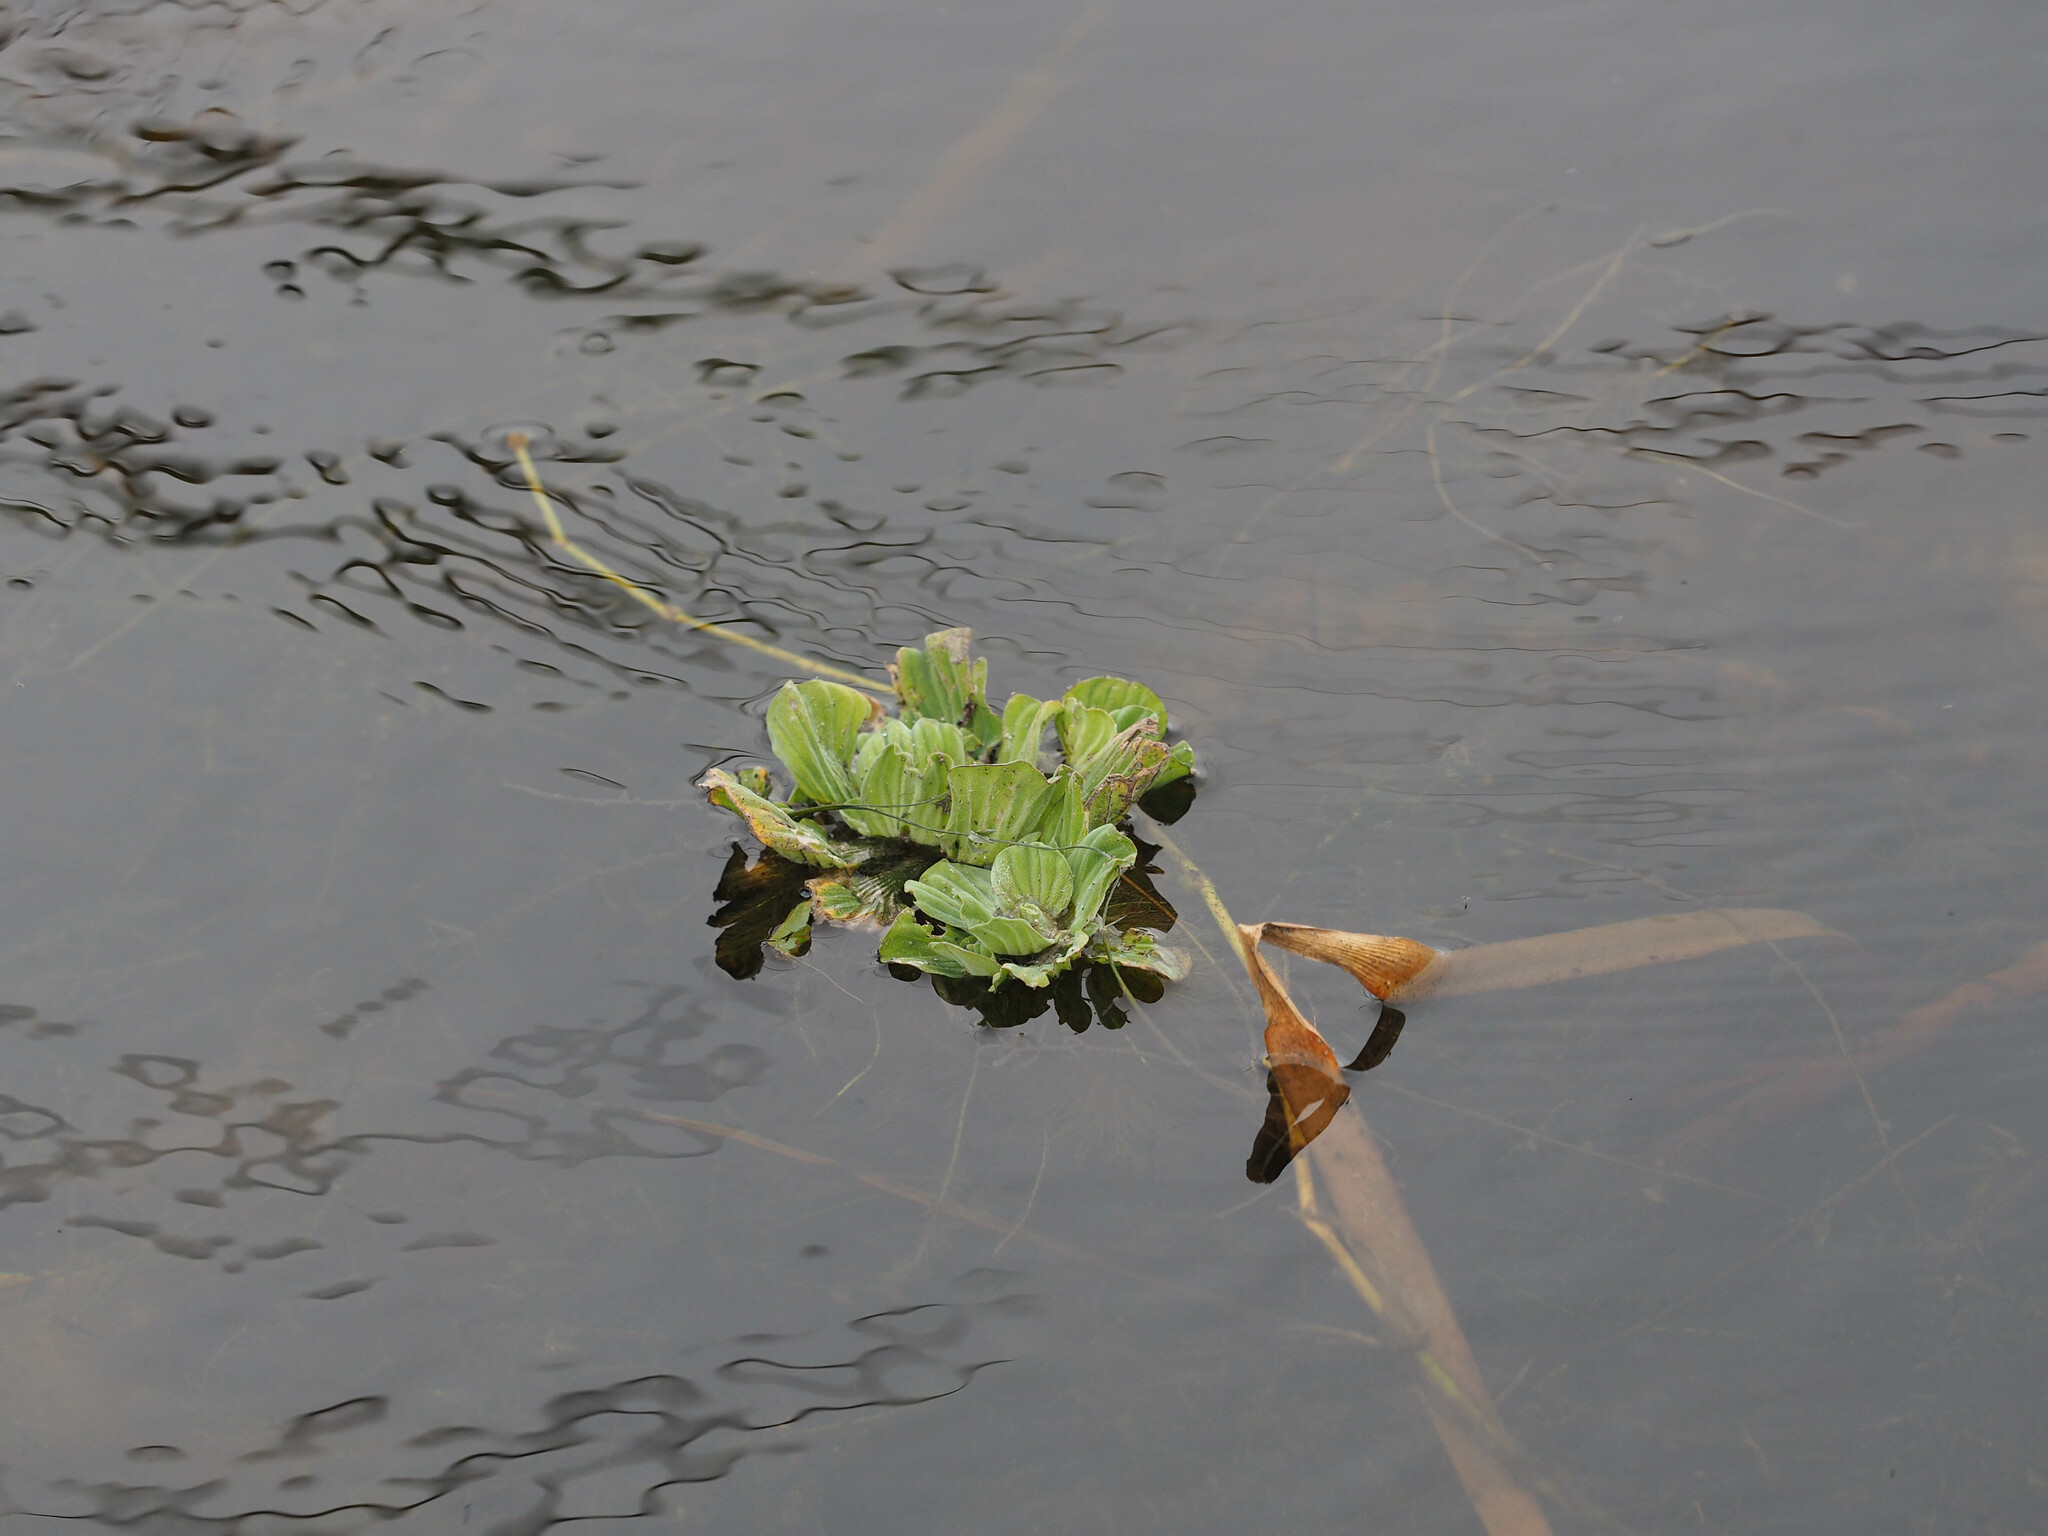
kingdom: Plantae
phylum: Tracheophyta
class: Liliopsida
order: Alismatales
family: Araceae
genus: Pistia
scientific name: Pistia stratiotes
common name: Water lettuce
